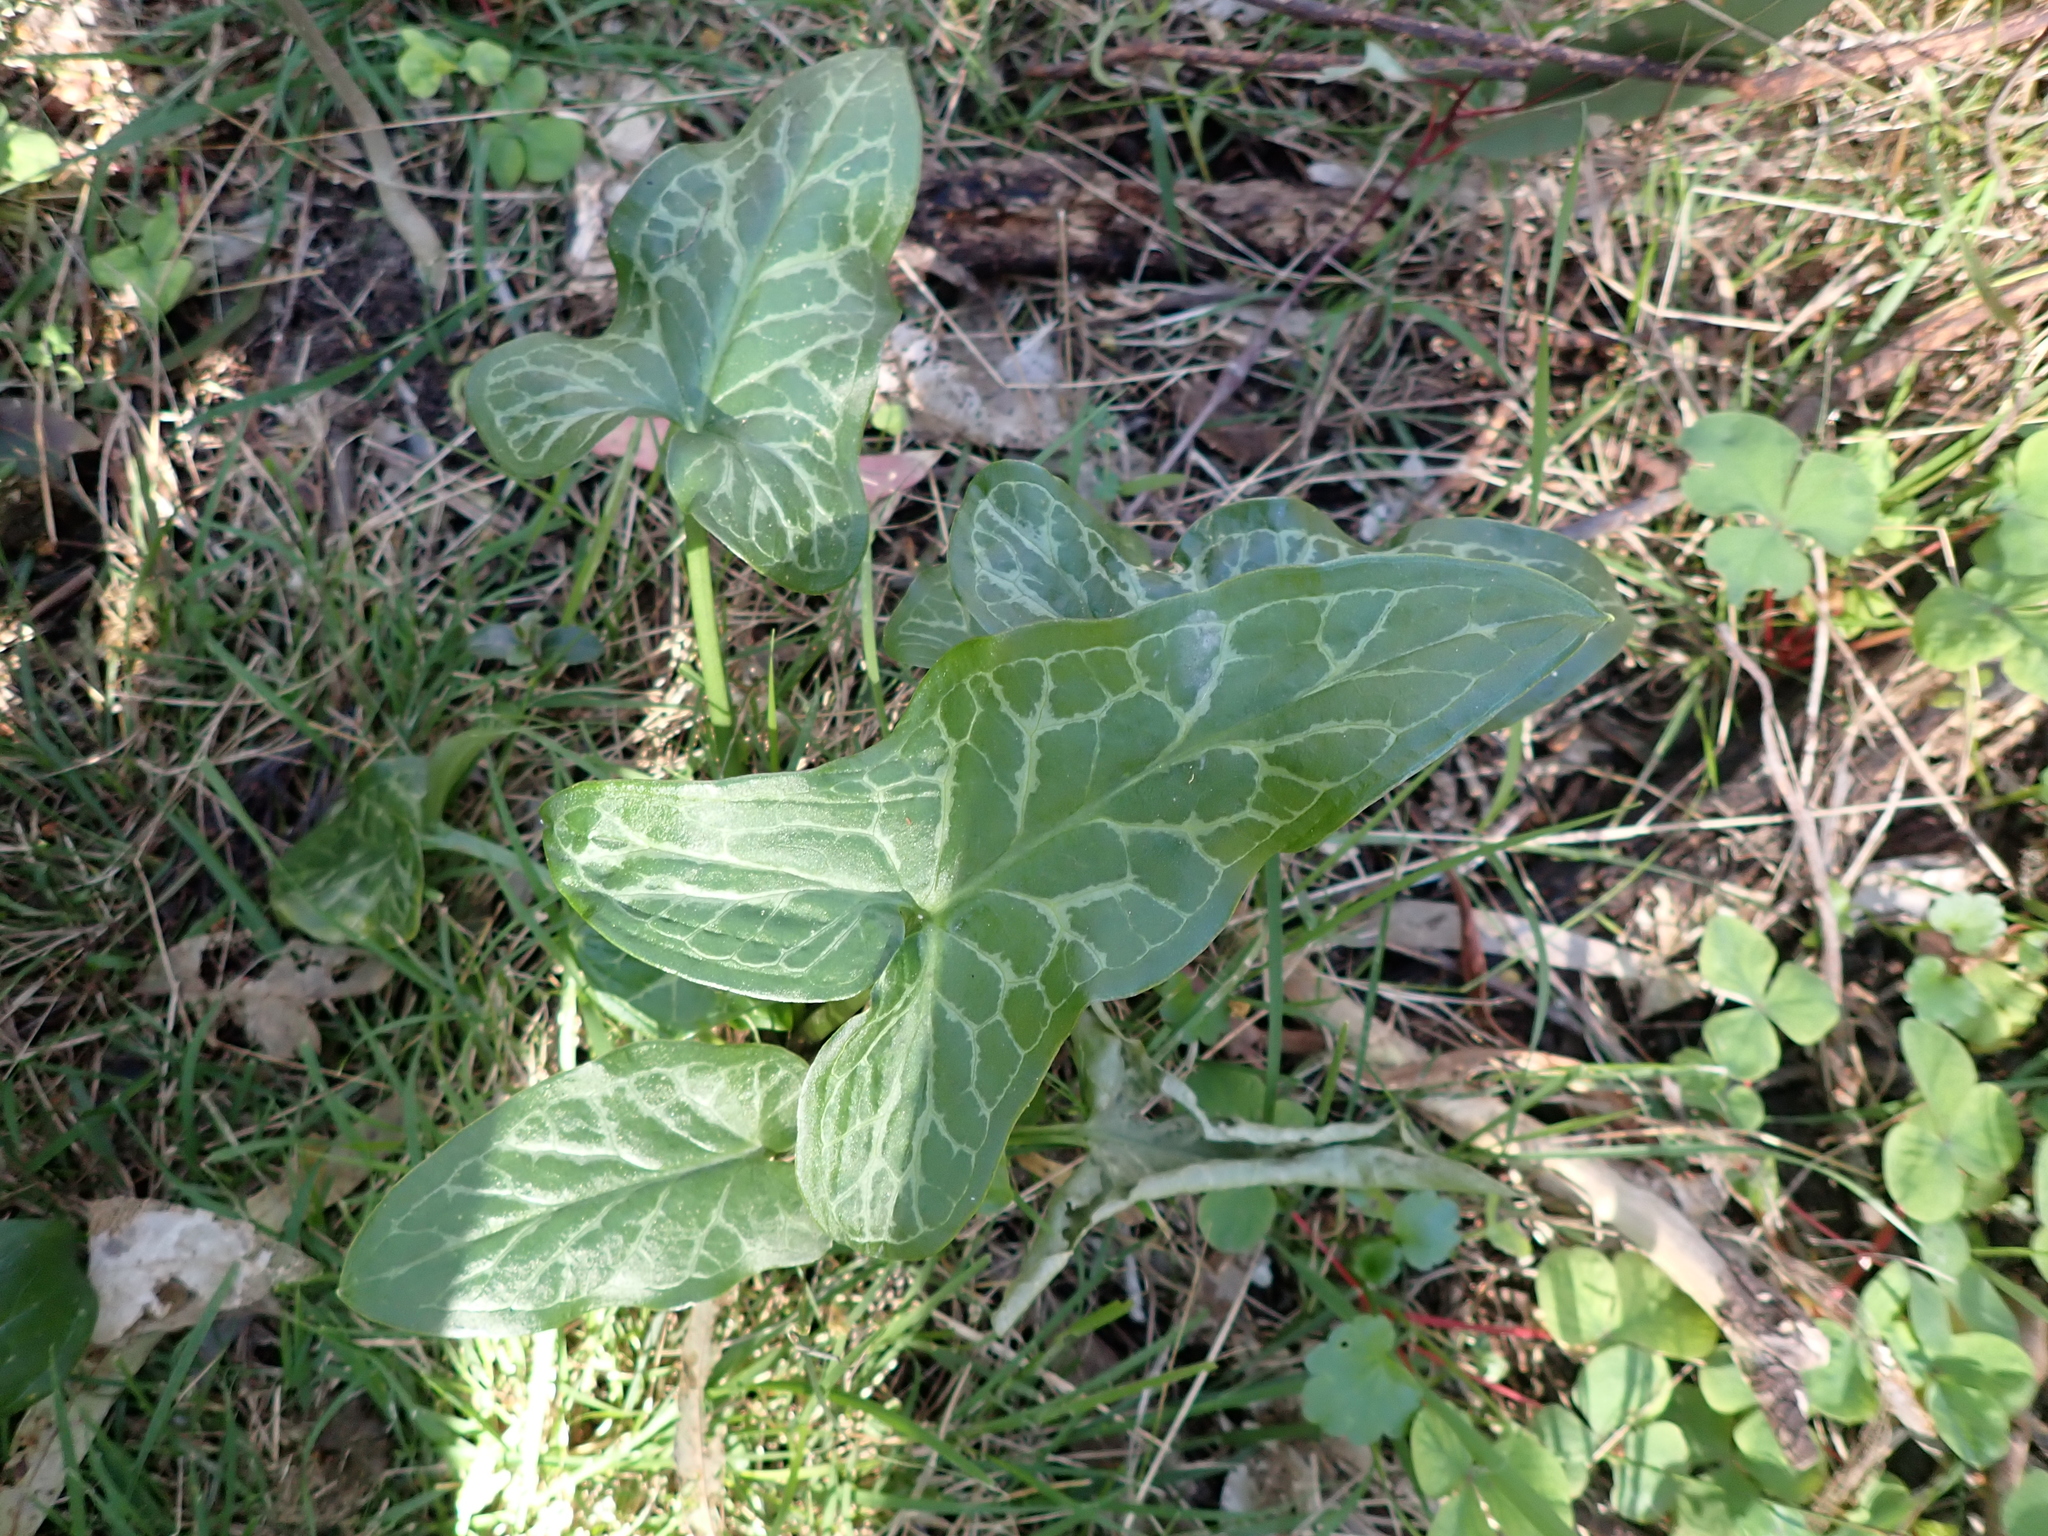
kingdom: Plantae
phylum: Tracheophyta
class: Liliopsida
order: Alismatales
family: Araceae
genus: Arum
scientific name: Arum italicum
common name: Italian lords-and-ladies
